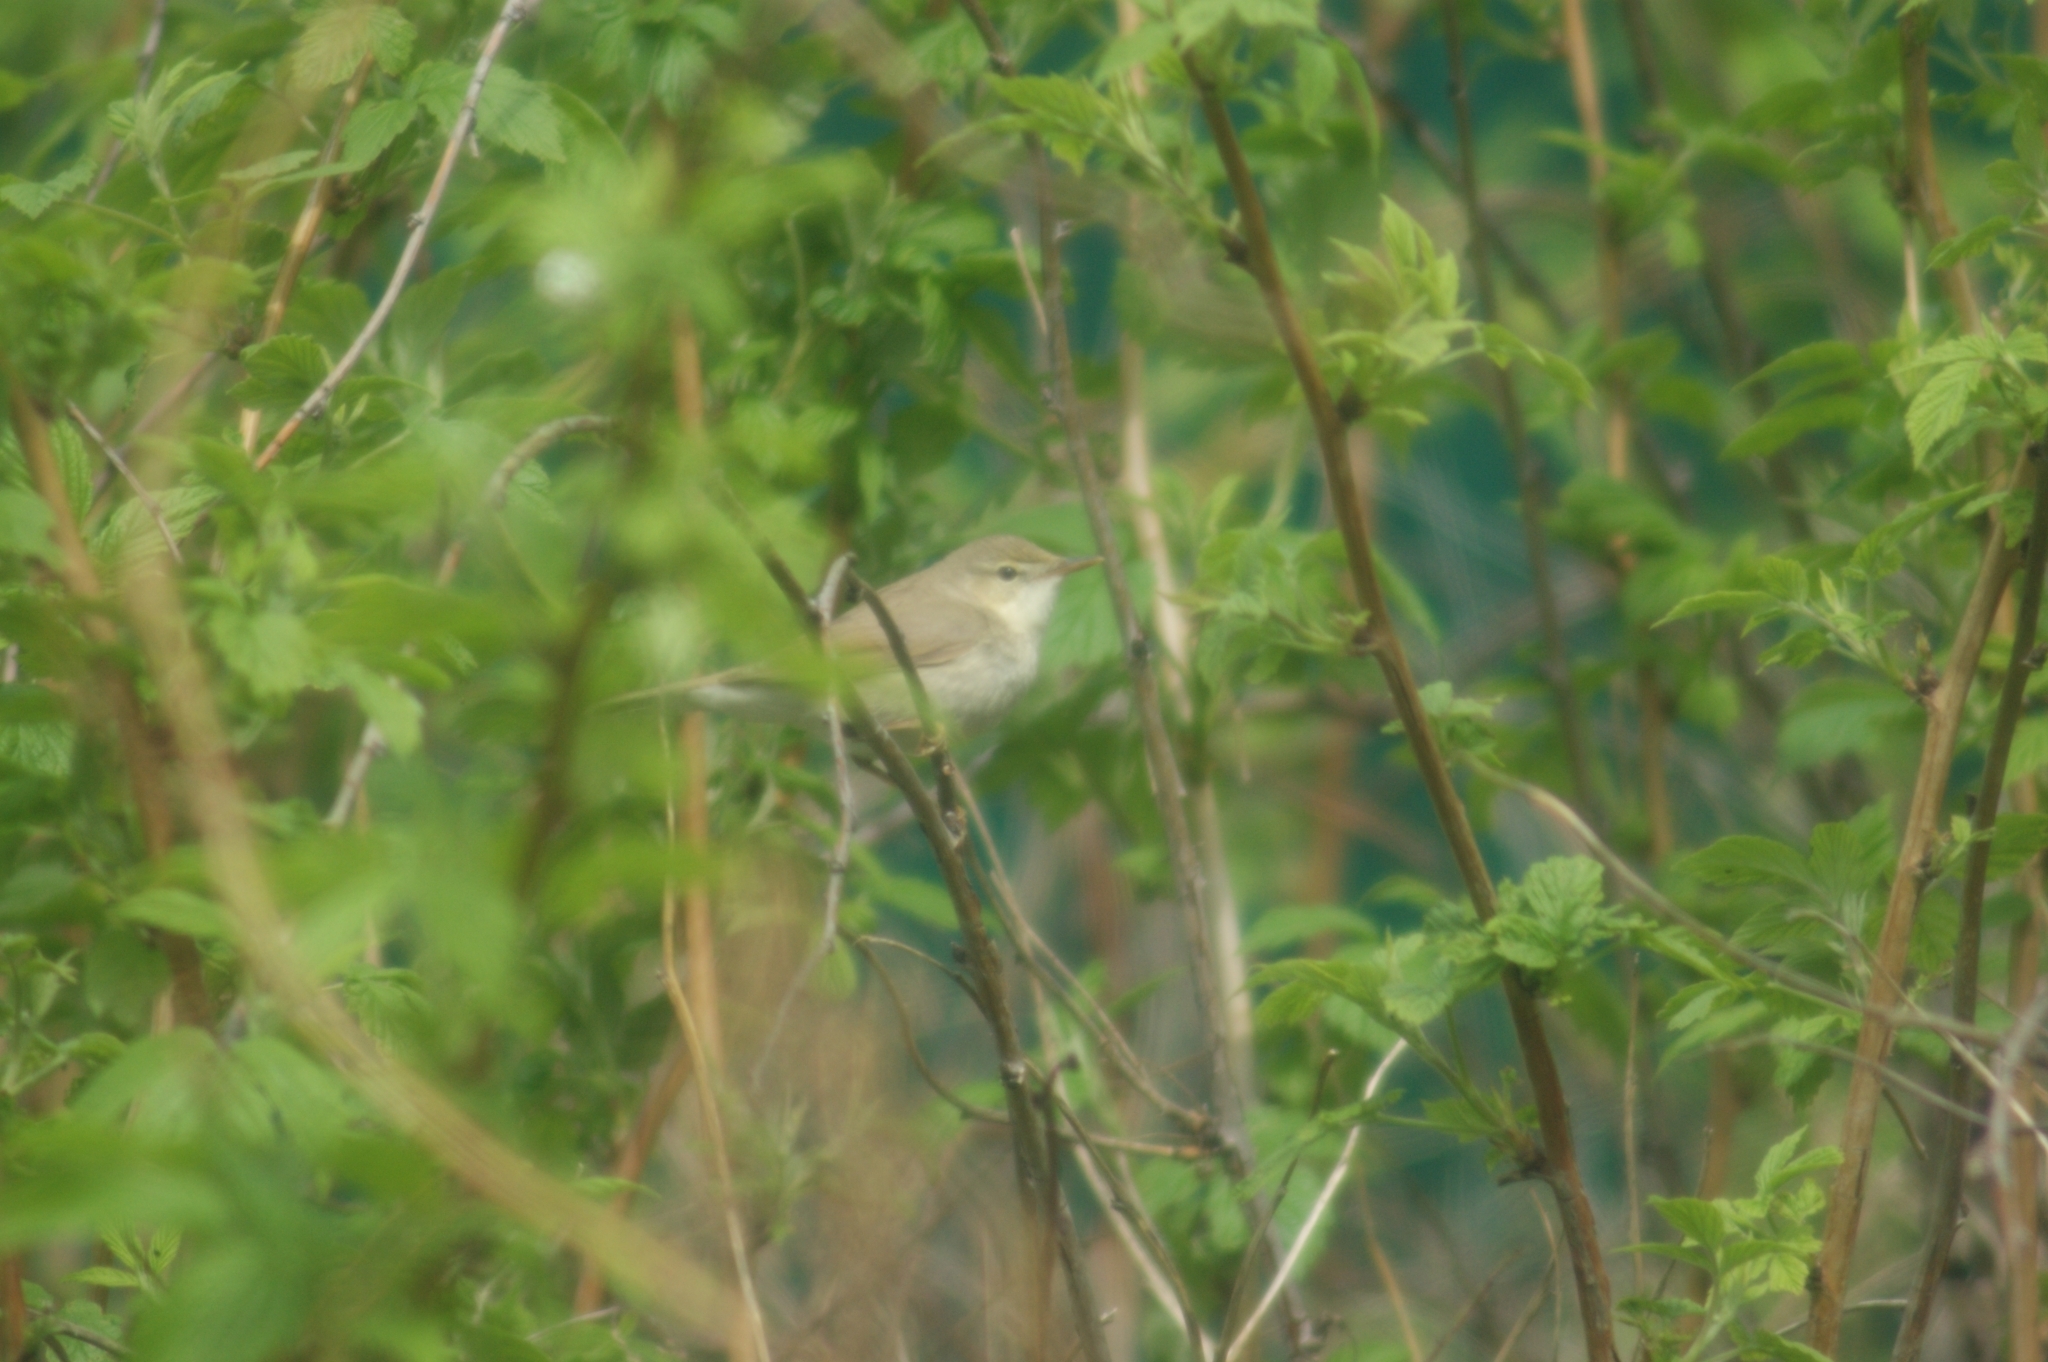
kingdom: Animalia
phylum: Chordata
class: Aves
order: Passeriformes
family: Acrocephalidae
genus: Acrocephalus
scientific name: Acrocephalus dumetorum
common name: Blyth's reed warbler
